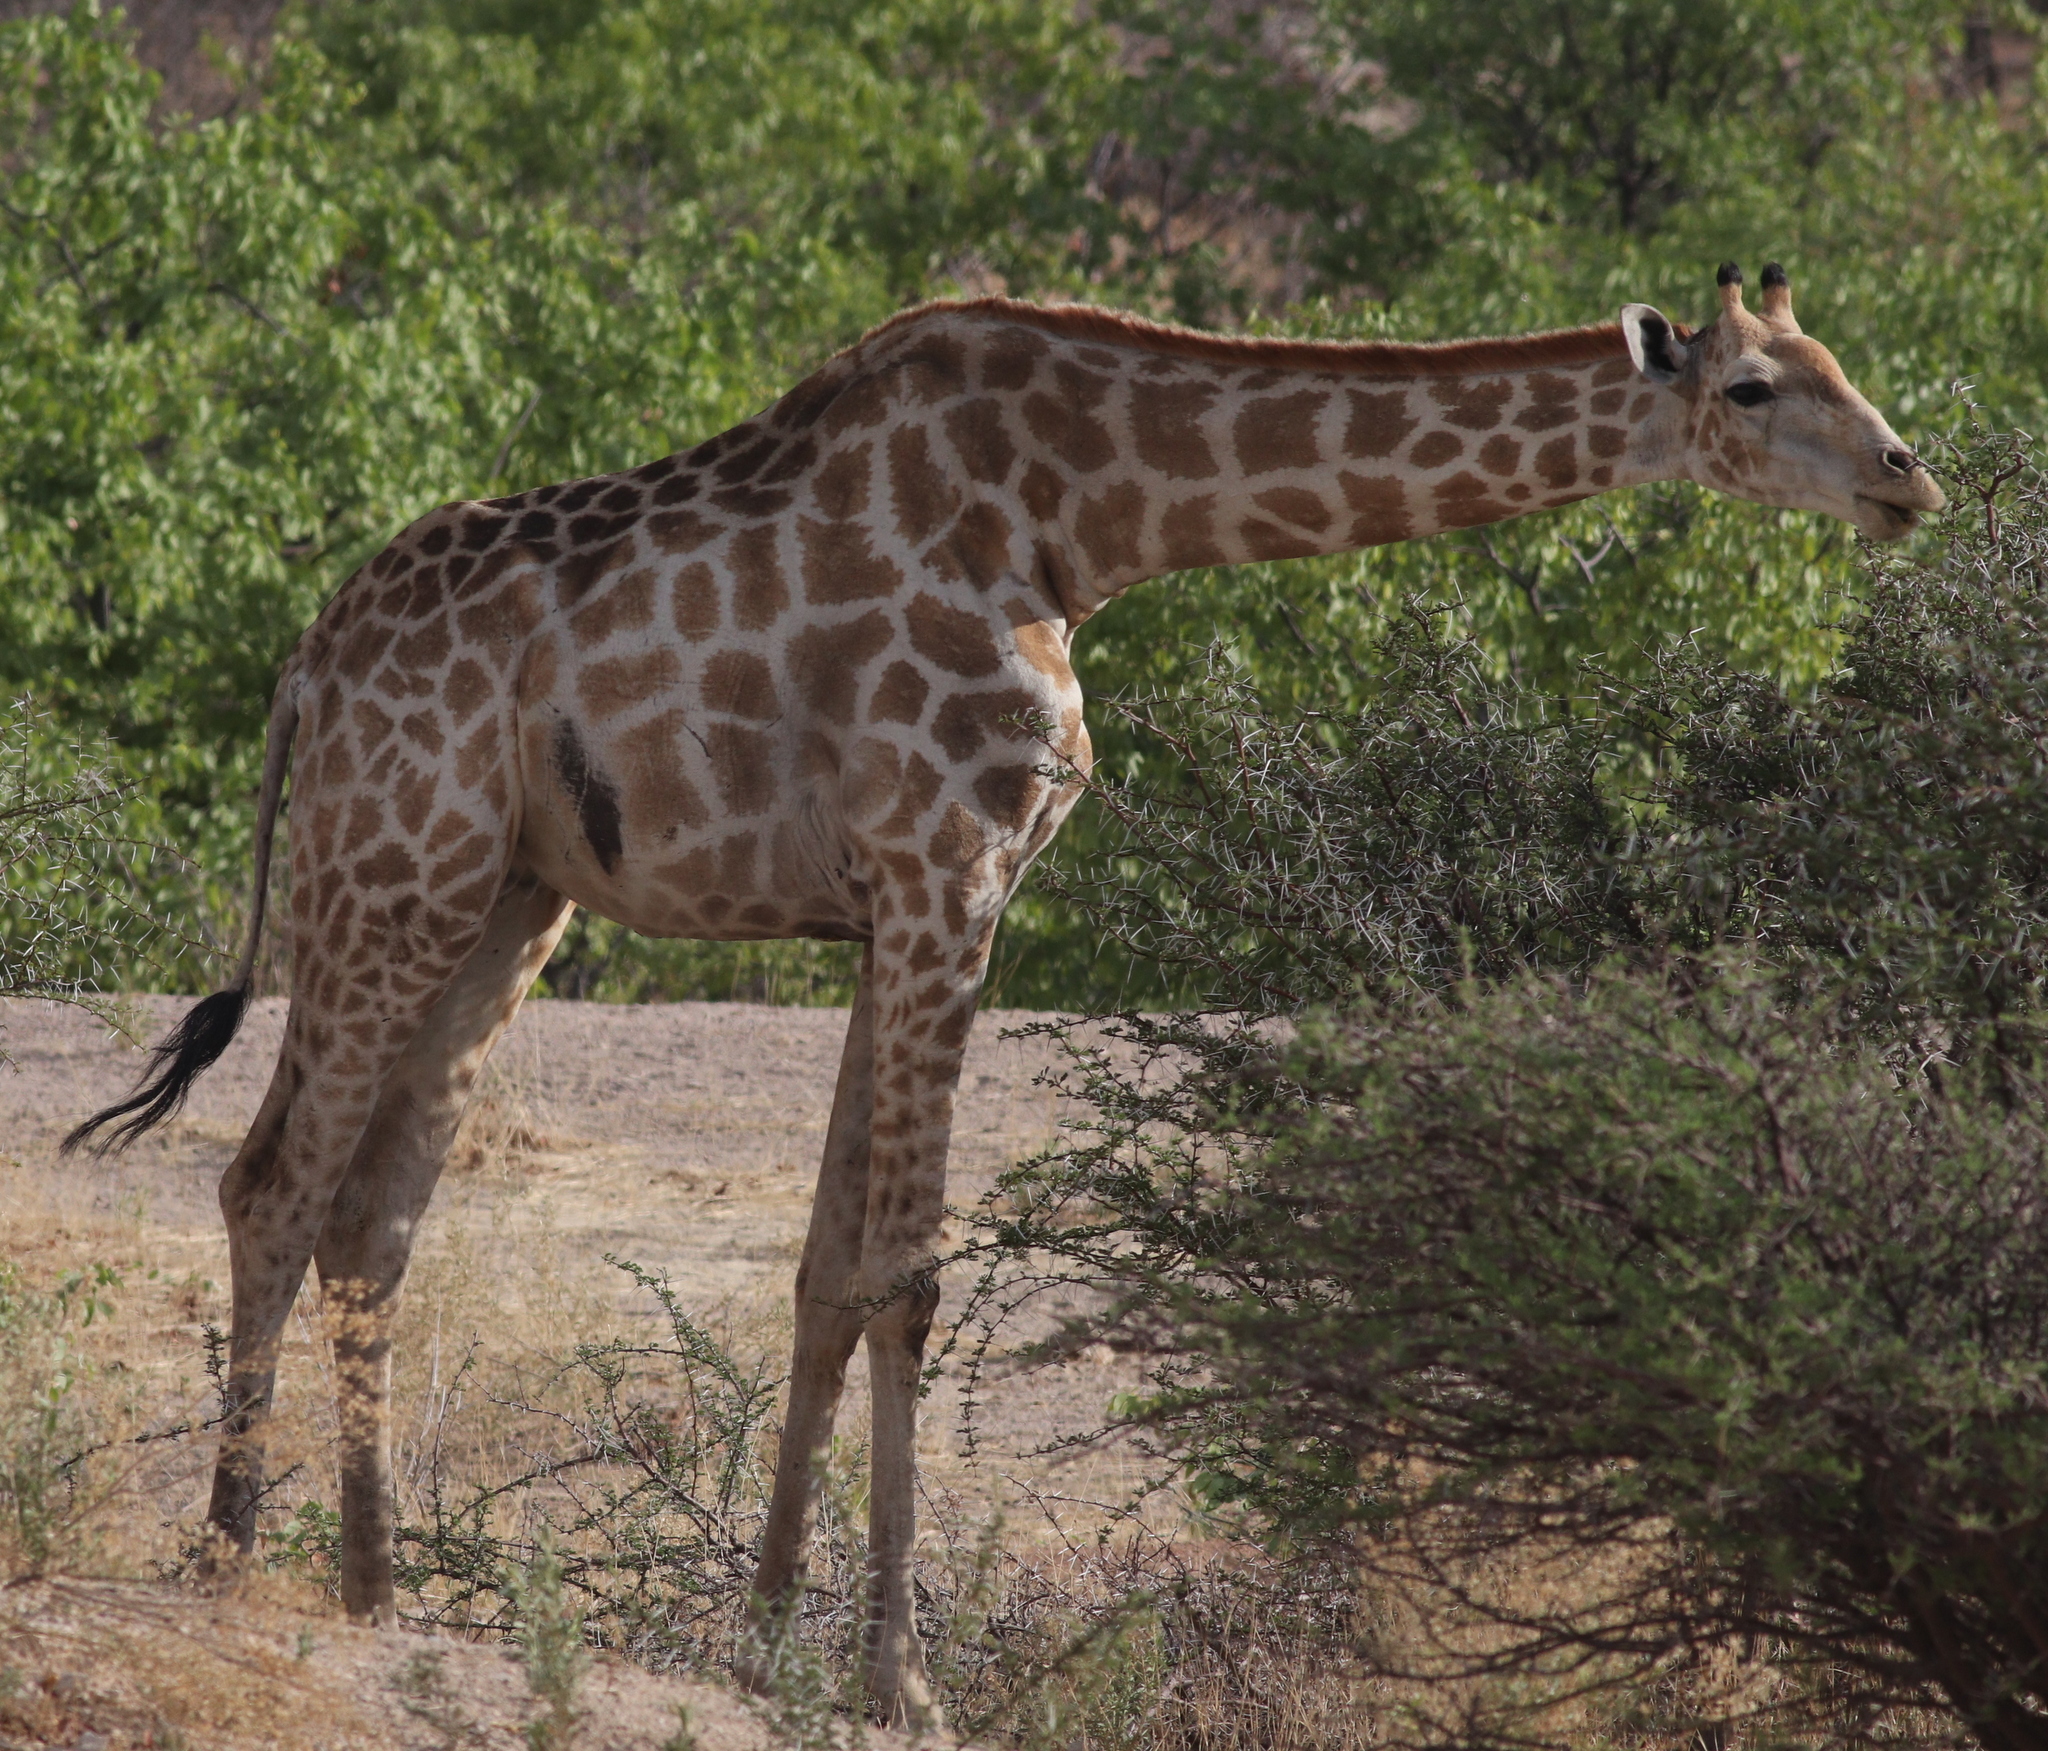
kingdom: Animalia
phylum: Chordata
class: Mammalia
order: Artiodactyla
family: Giraffidae
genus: Giraffa
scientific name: Giraffa giraffa
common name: Southern giraffe
